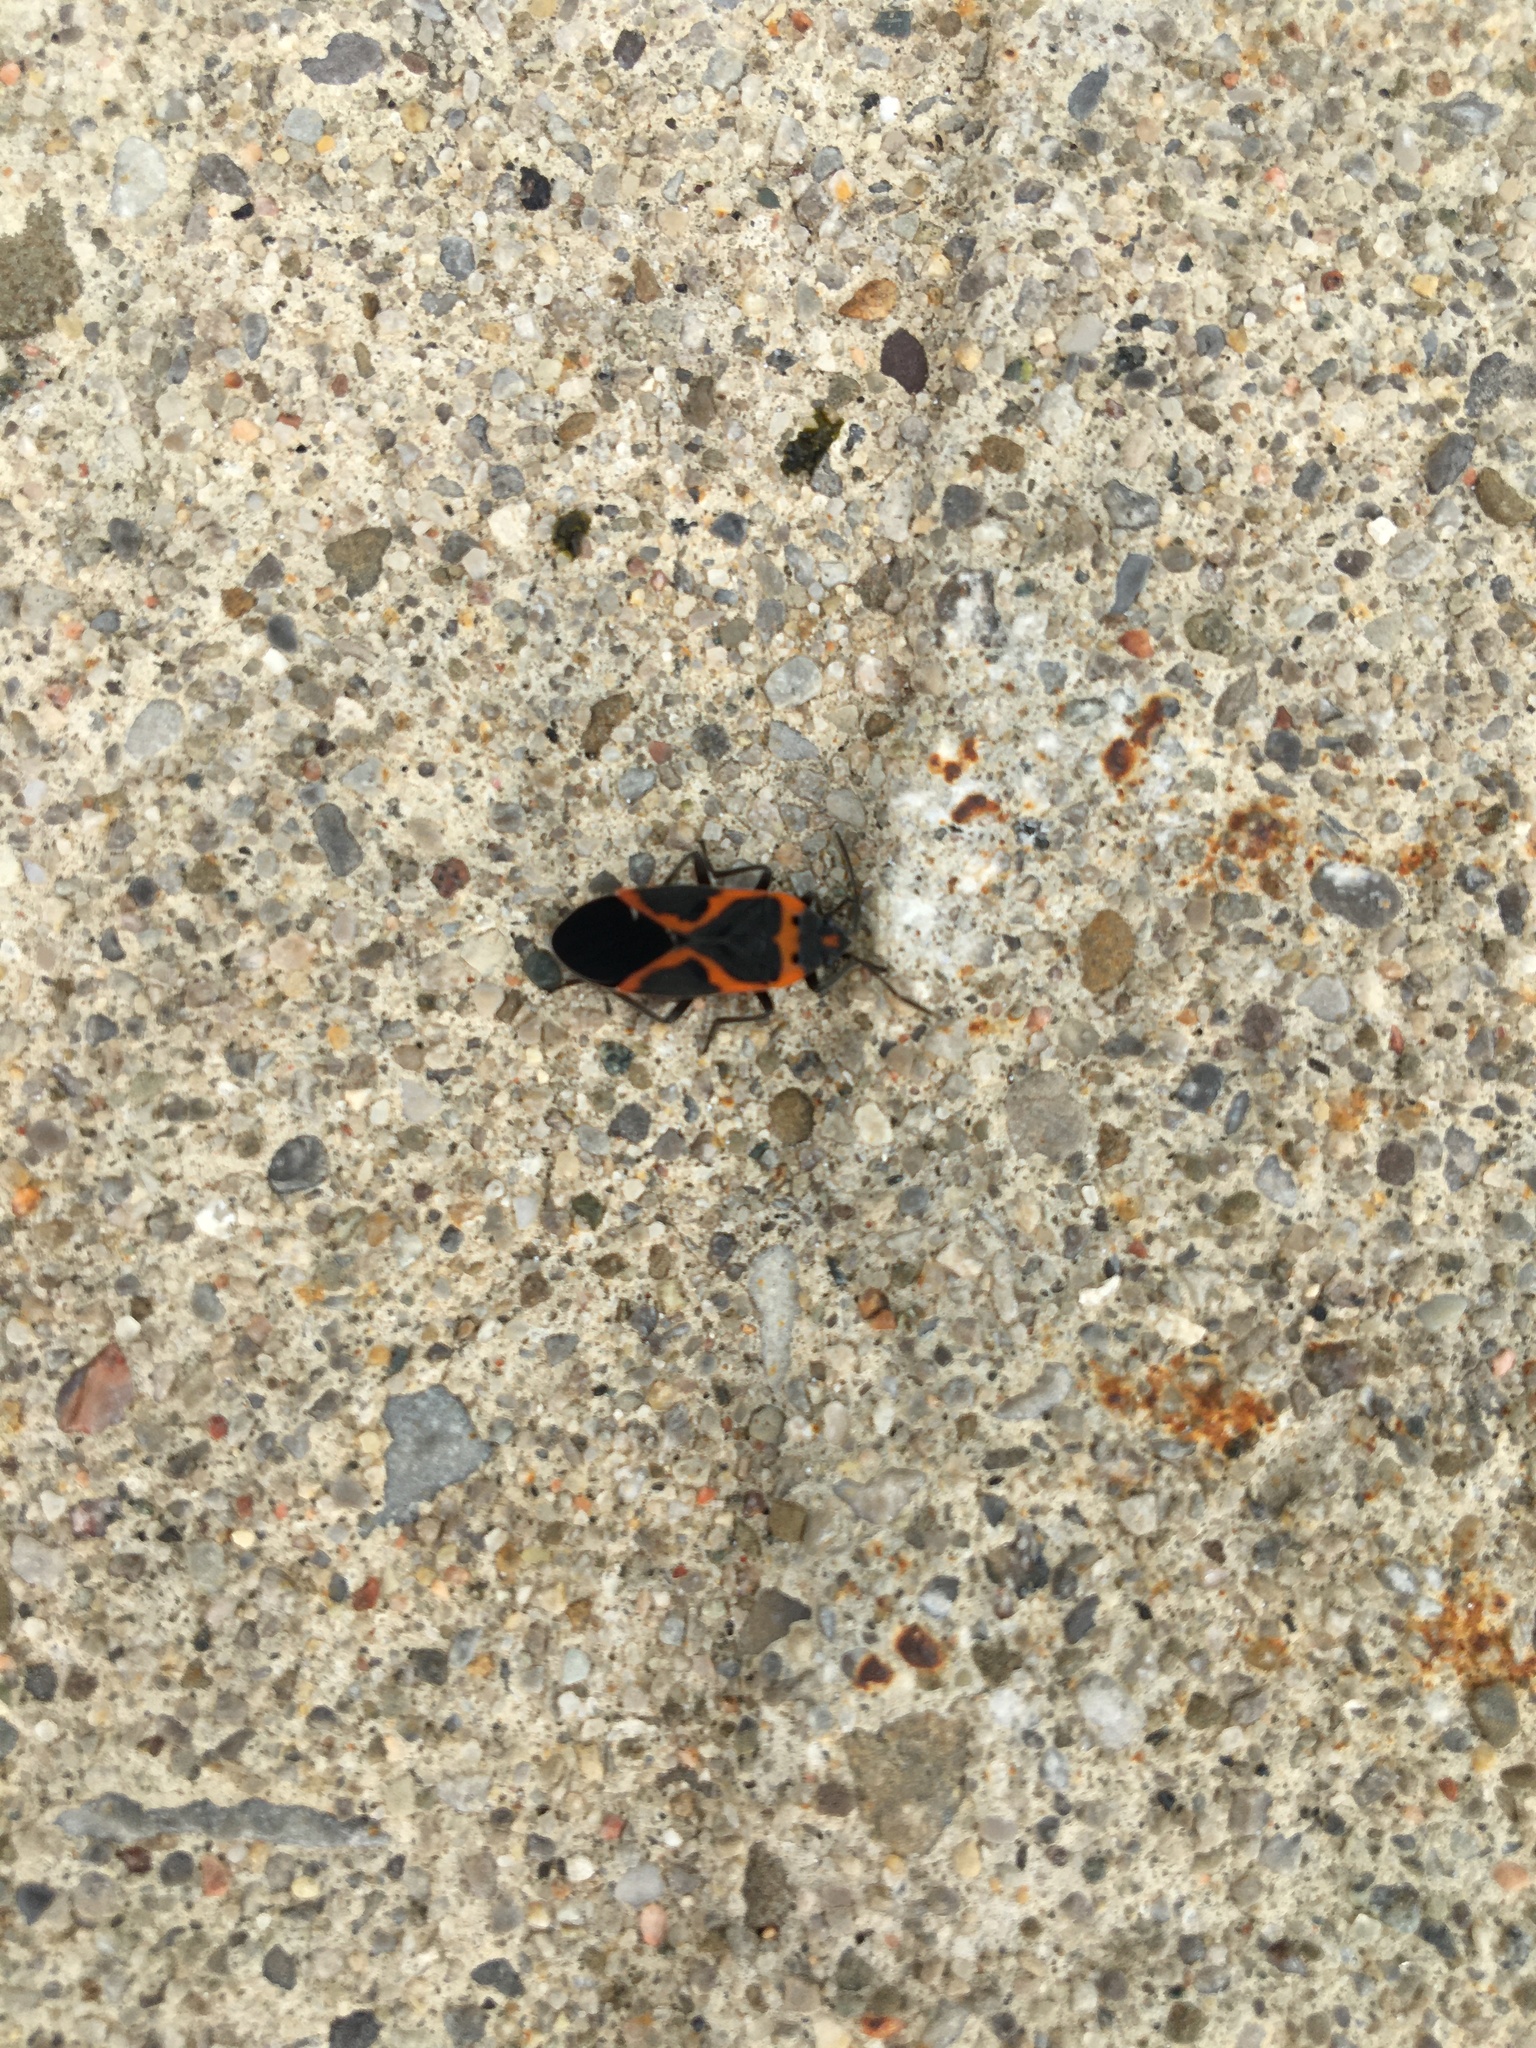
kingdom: Animalia
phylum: Arthropoda
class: Insecta
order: Hemiptera
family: Lygaeidae
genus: Lygaeus
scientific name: Lygaeus kalmii
